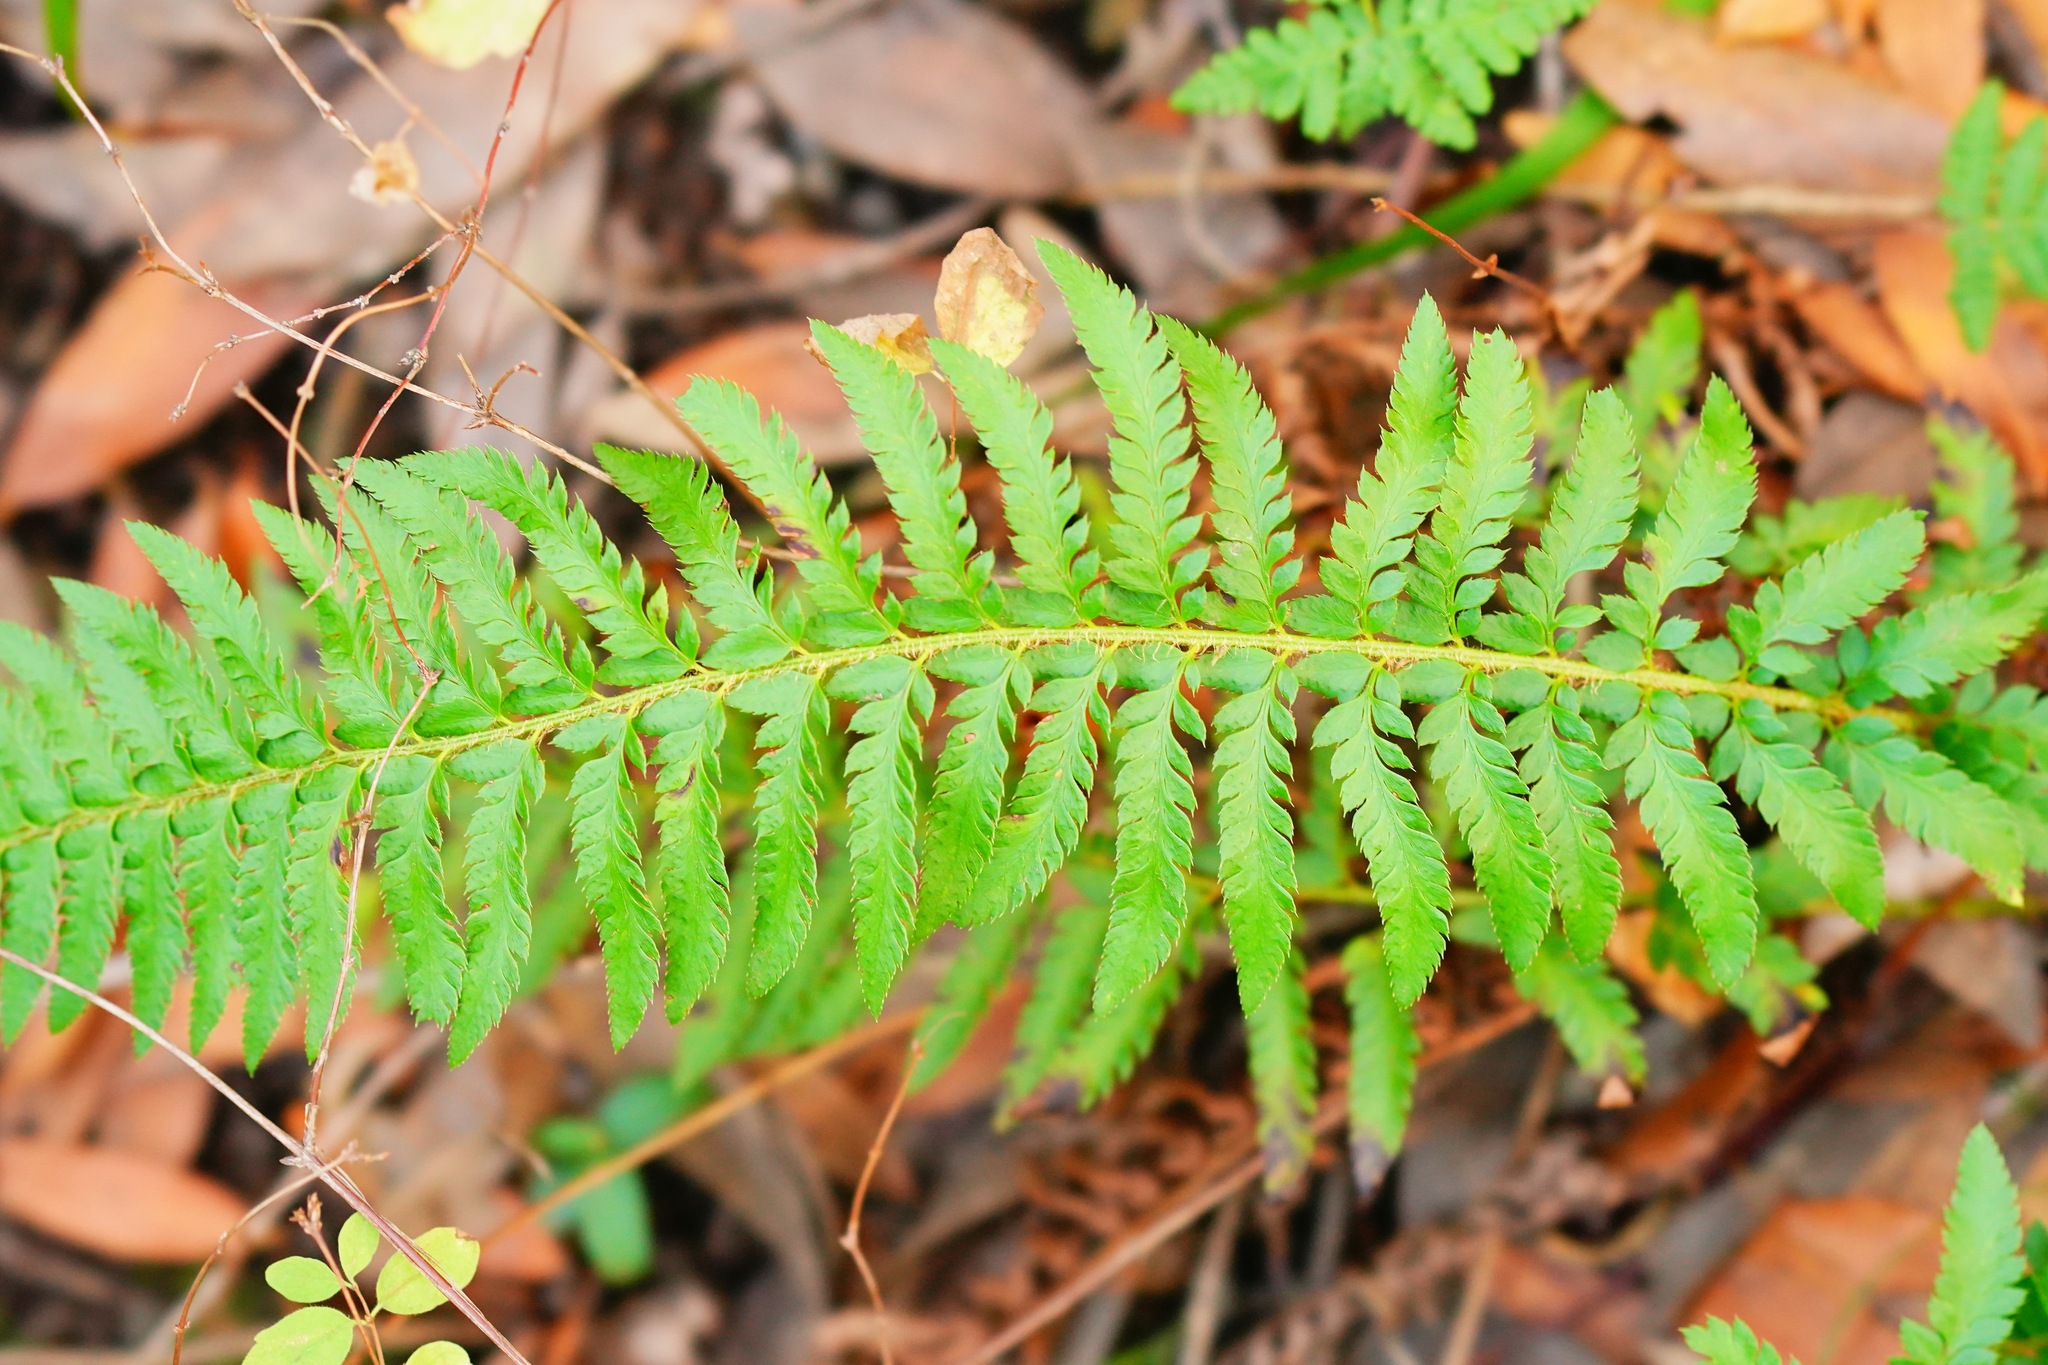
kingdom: Plantae
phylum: Tracheophyta
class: Polypodiopsida
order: Polypodiales
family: Dryopteridaceae
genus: Polystichum
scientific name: Polystichum californicum
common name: California sword fern
